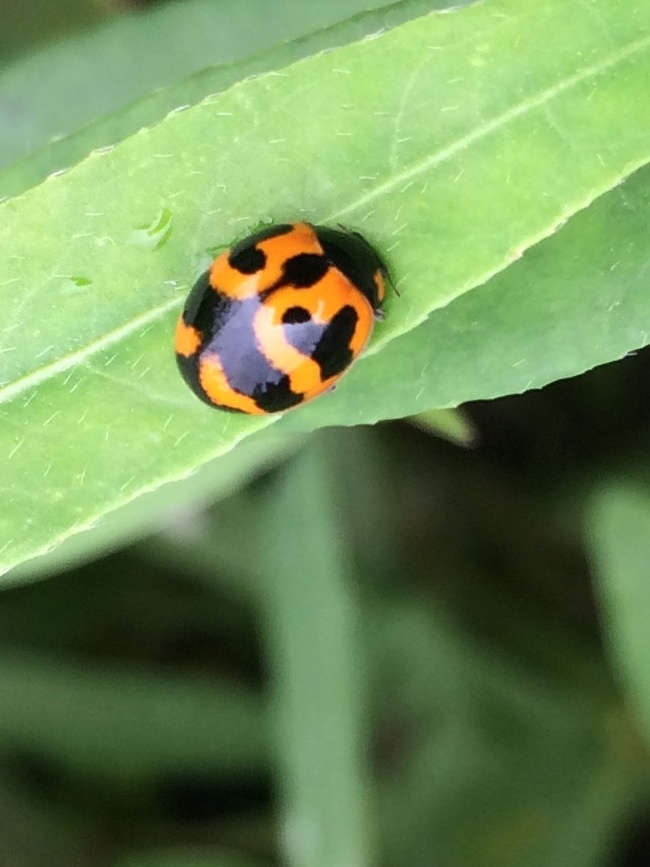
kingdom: Animalia
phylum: Arthropoda
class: Insecta
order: Coleoptera
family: Coccinellidae
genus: Coccinella
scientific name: Coccinella transversalis
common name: Transverse lady beetle
